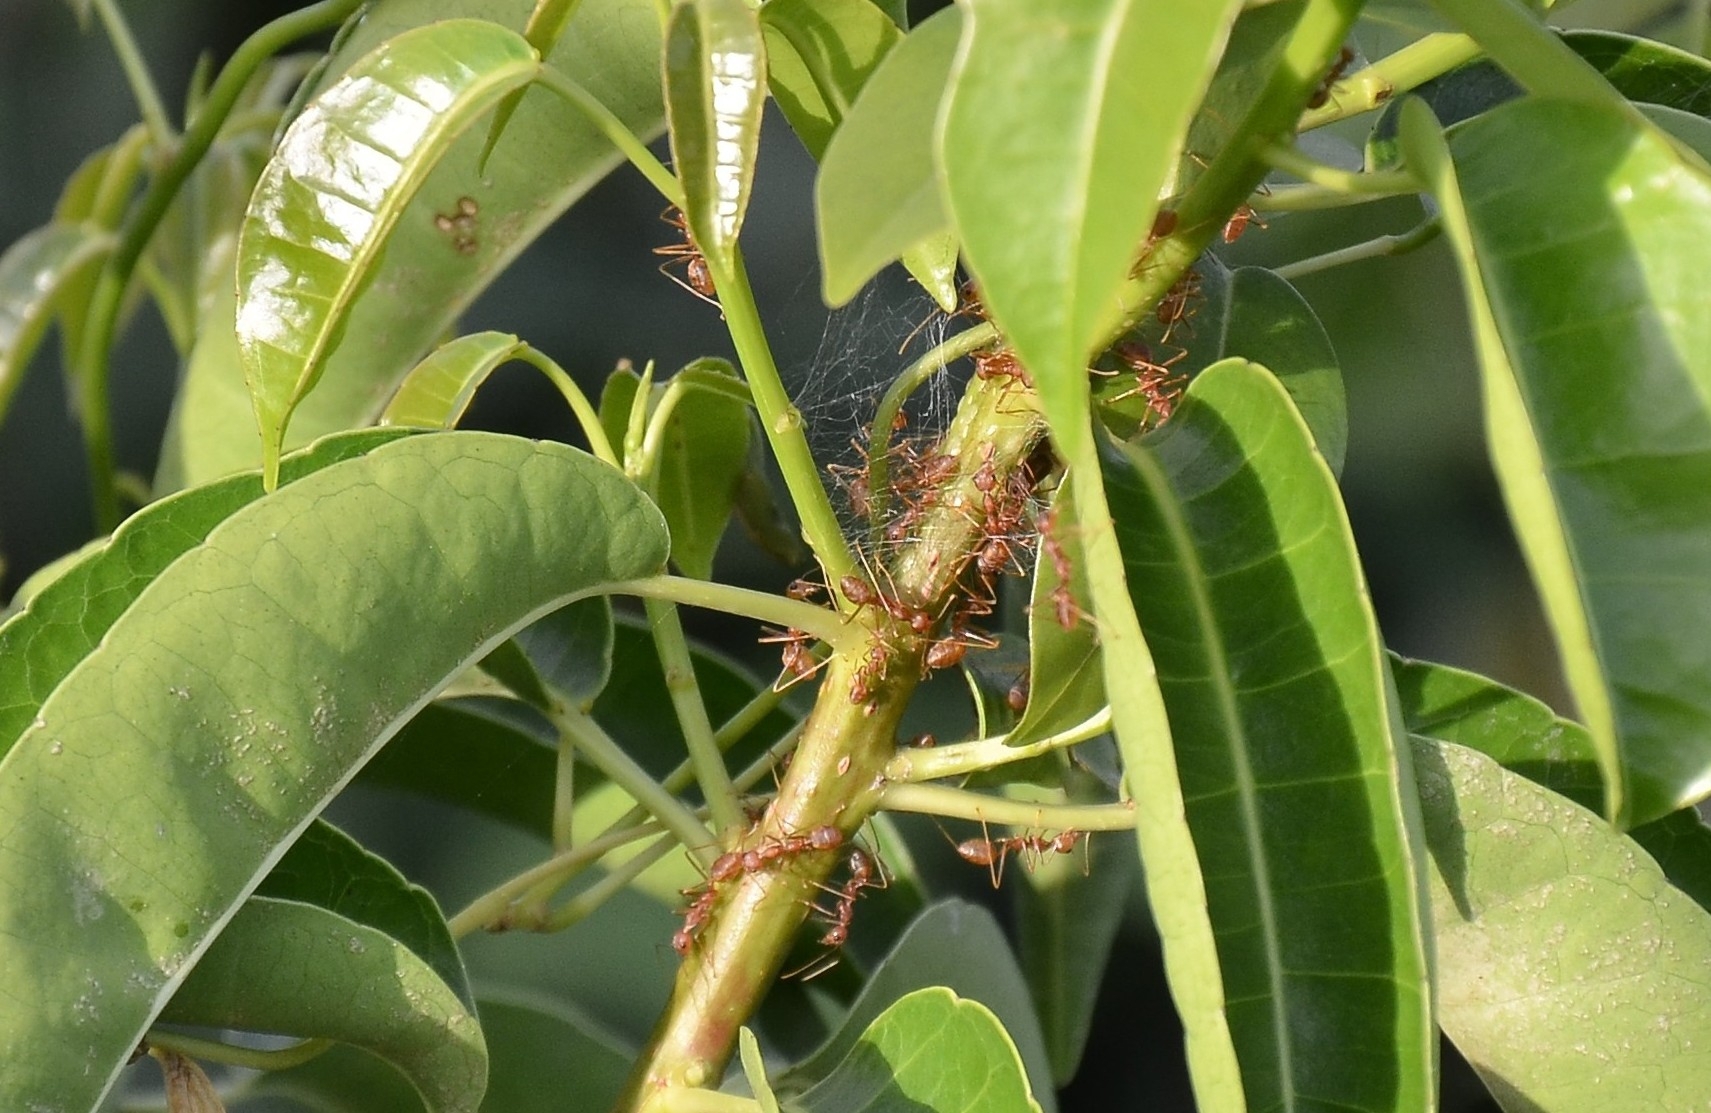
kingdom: Animalia
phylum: Arthropoda
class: Insecta
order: Hymenoptera
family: Formicidae
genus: Oecophylla
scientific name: Oecophylla smaragdina
